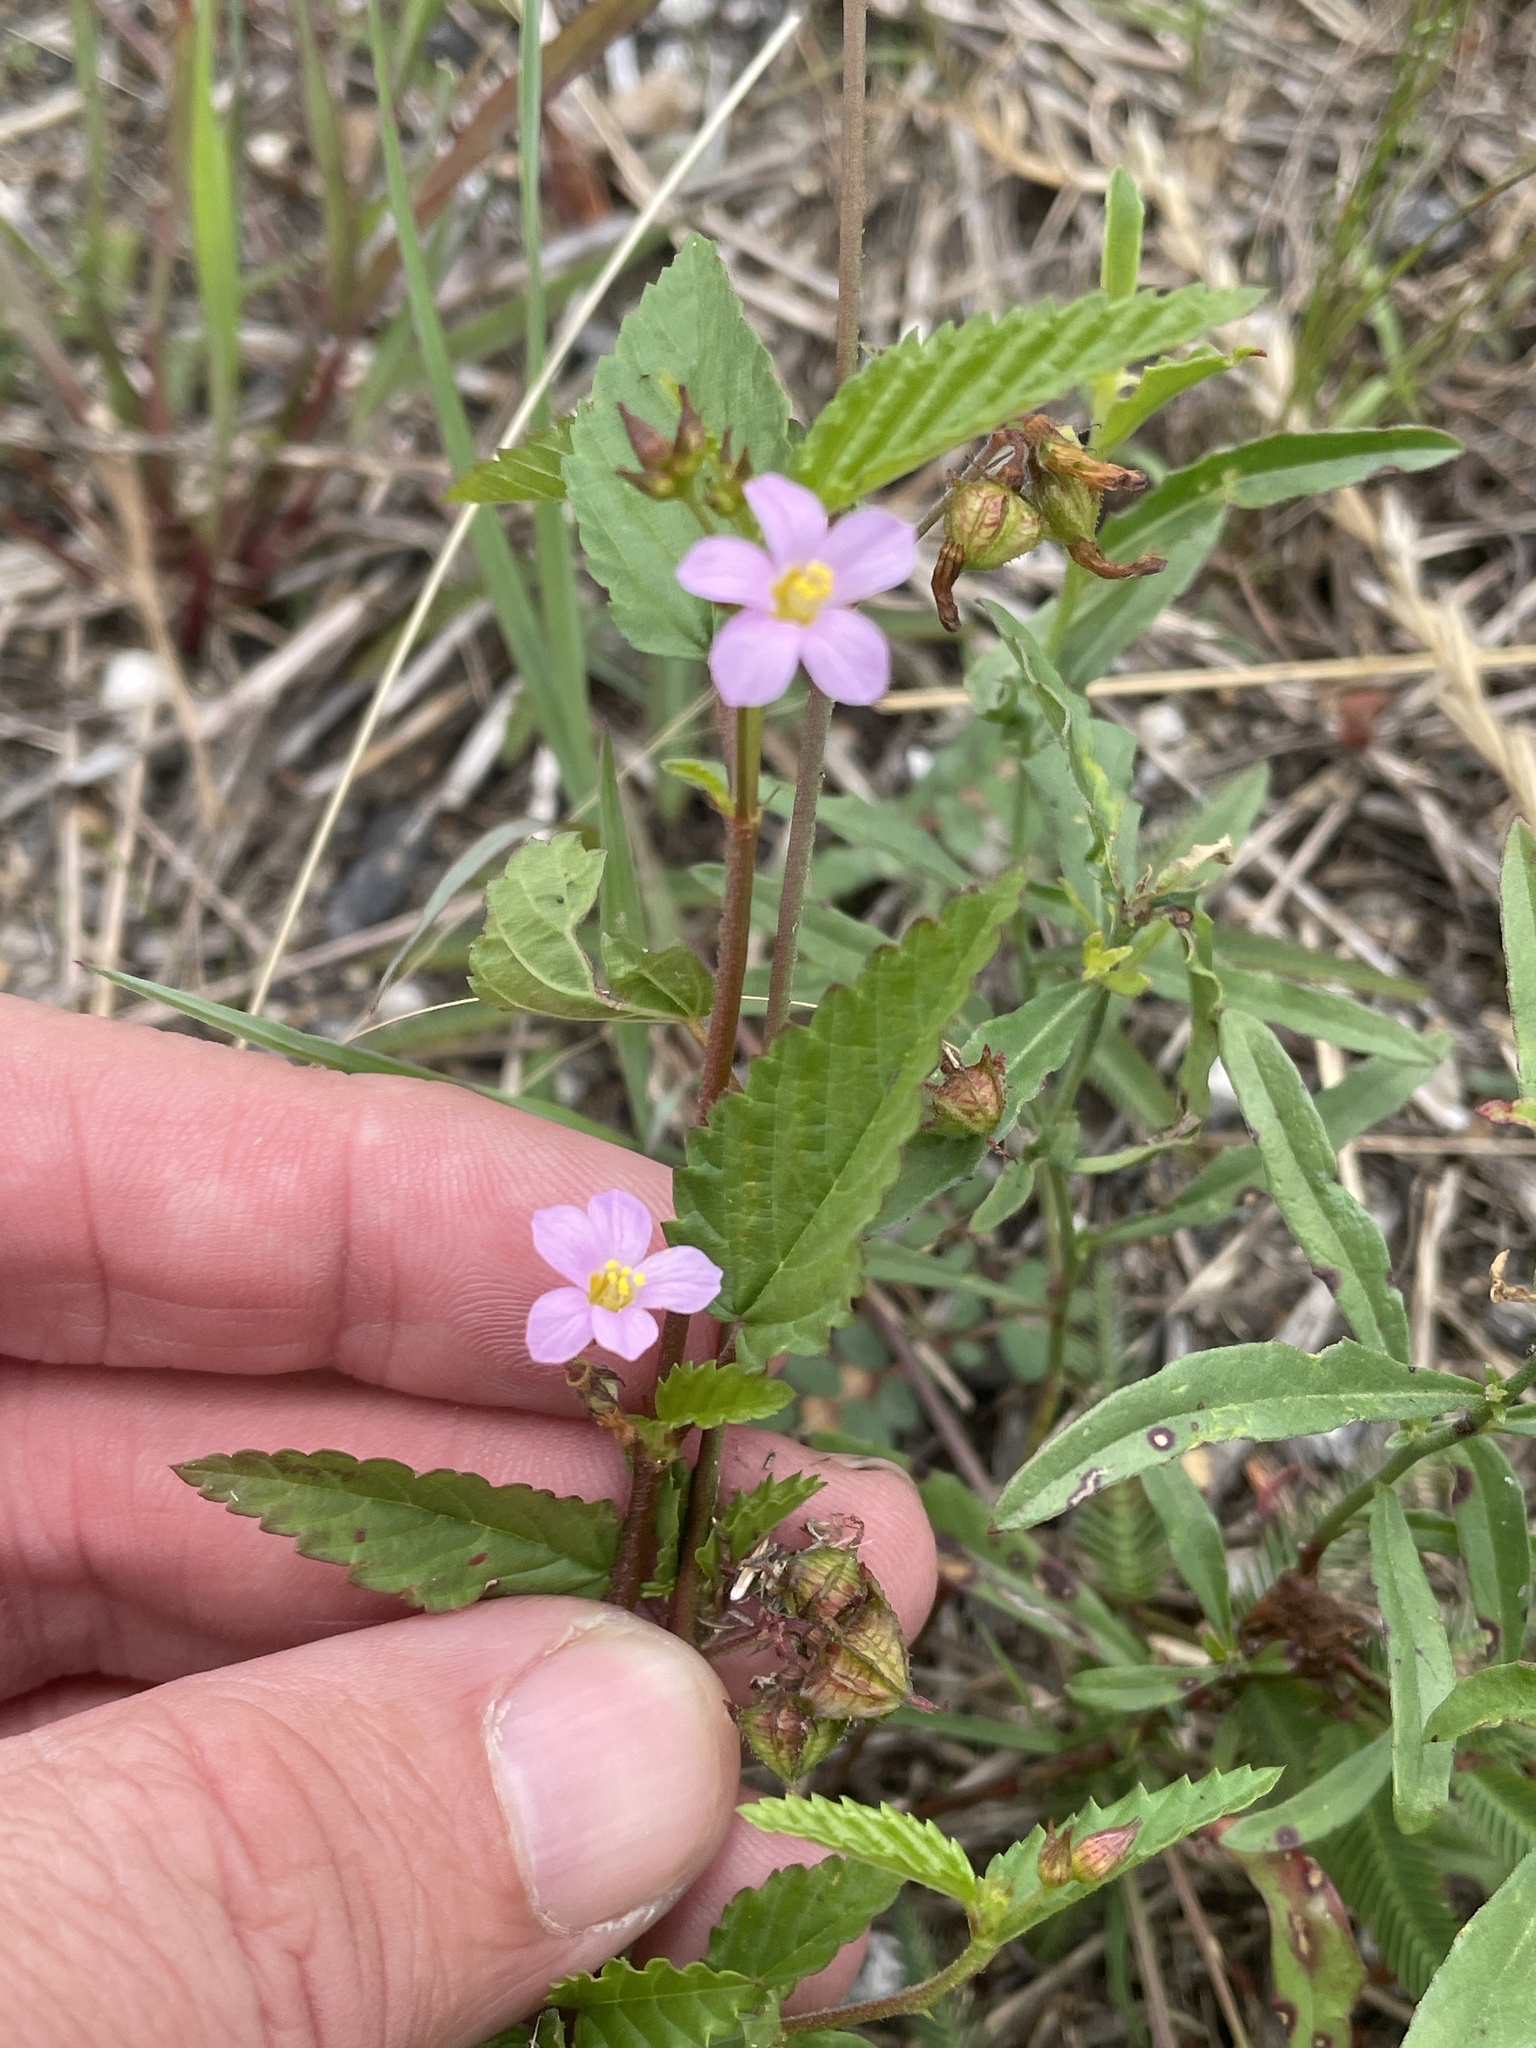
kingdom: Plantae
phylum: Tracheophyta
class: Magnoliopsida
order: Malvales
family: Malvaceae
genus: Melochia
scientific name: Melochia pyramidata
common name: Pyramidflower
